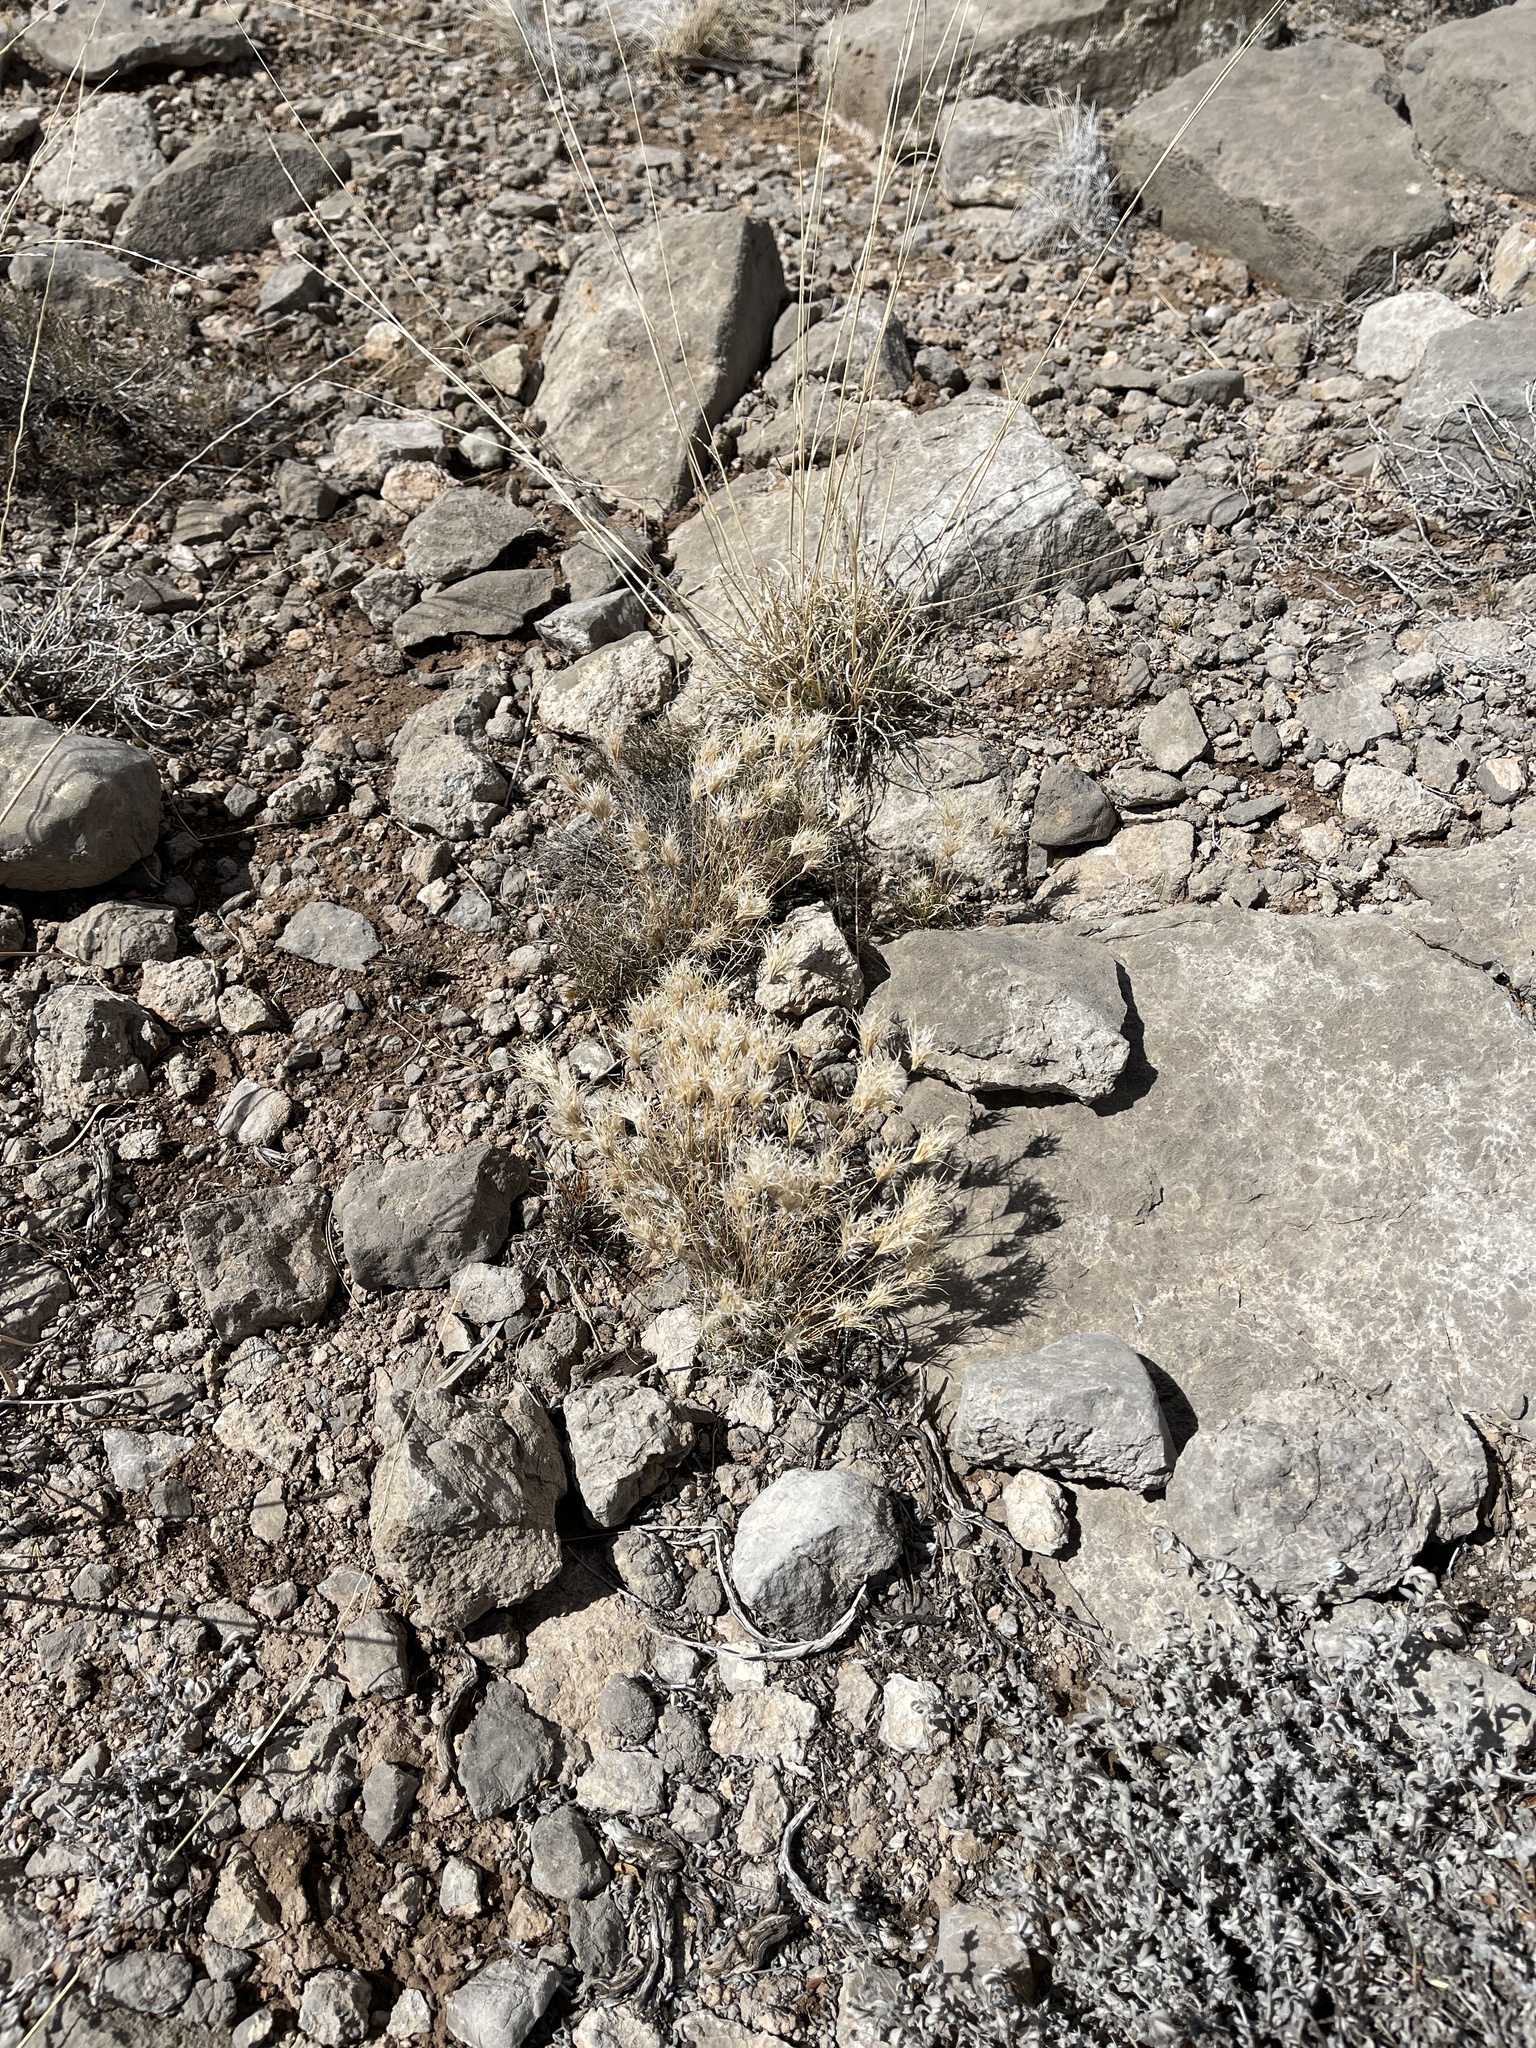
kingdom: Plantae
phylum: Tracheophyta
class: Liliopsida
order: Poales
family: Poaceae
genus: Dasyochloa
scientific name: Dasyochloa pulchella
